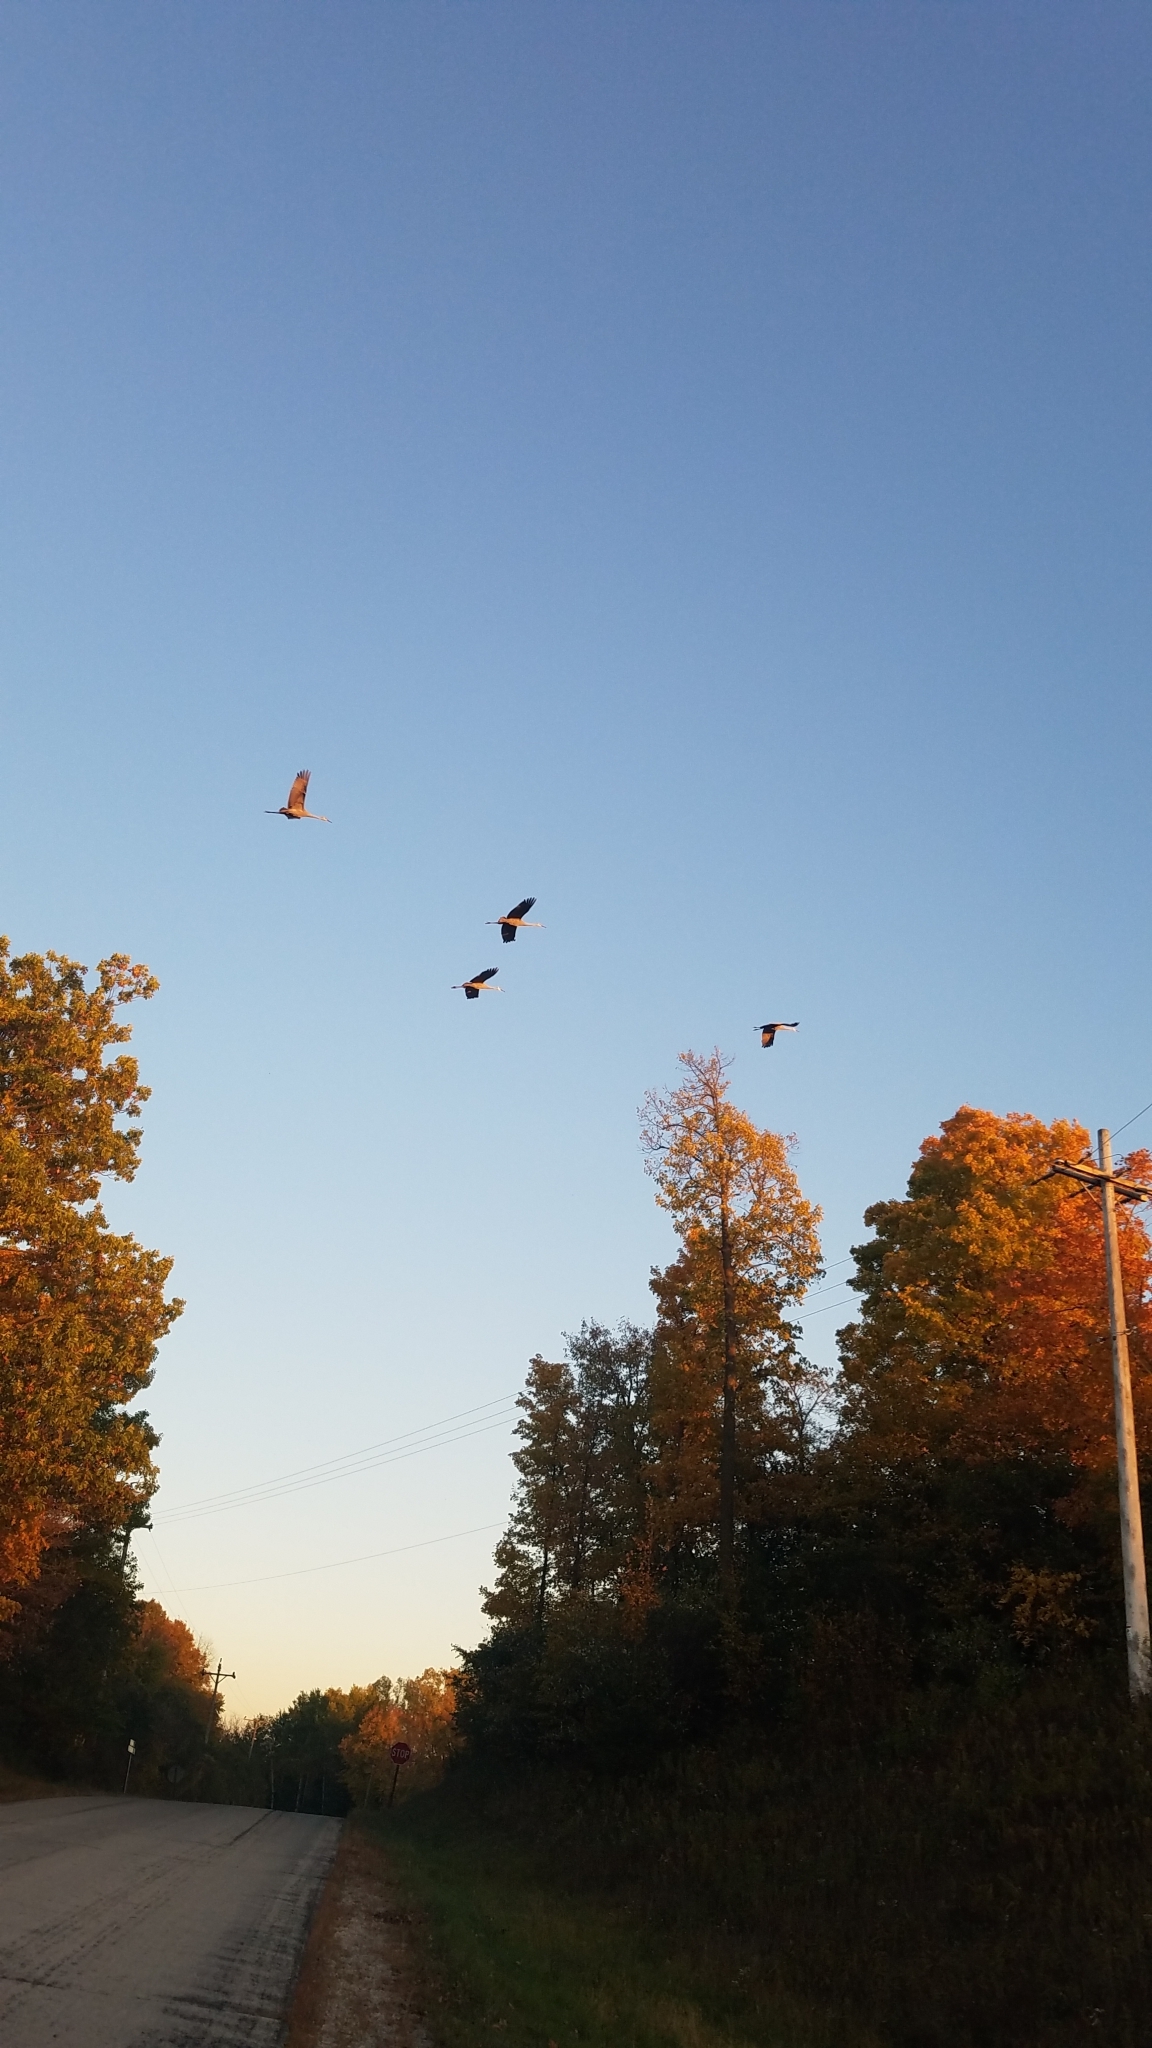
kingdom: Animalia
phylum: Chordata
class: Aves
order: Gruiformes
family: Gruidae
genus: Grus
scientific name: Grus canadensis
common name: Sandhill crane
